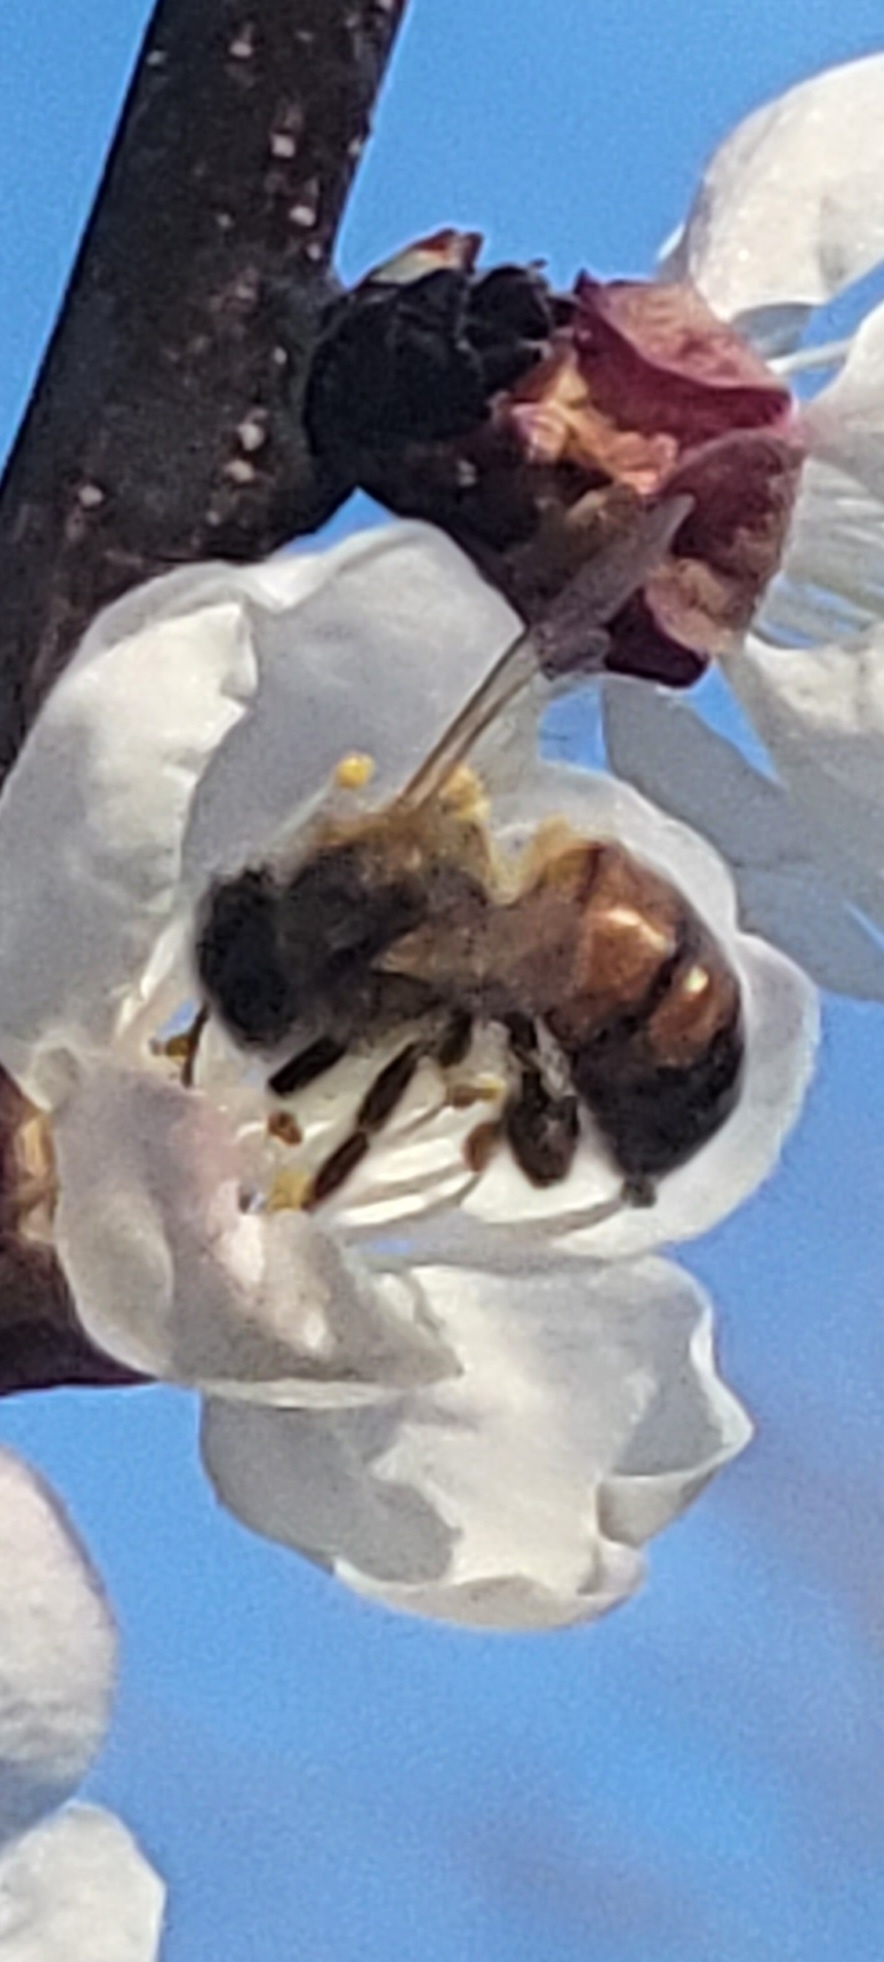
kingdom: Animalia
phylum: Arthropoda
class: Insecta
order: Hymenoptera
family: Apidae
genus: Apis
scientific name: Apis mellifera
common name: Honey bee
